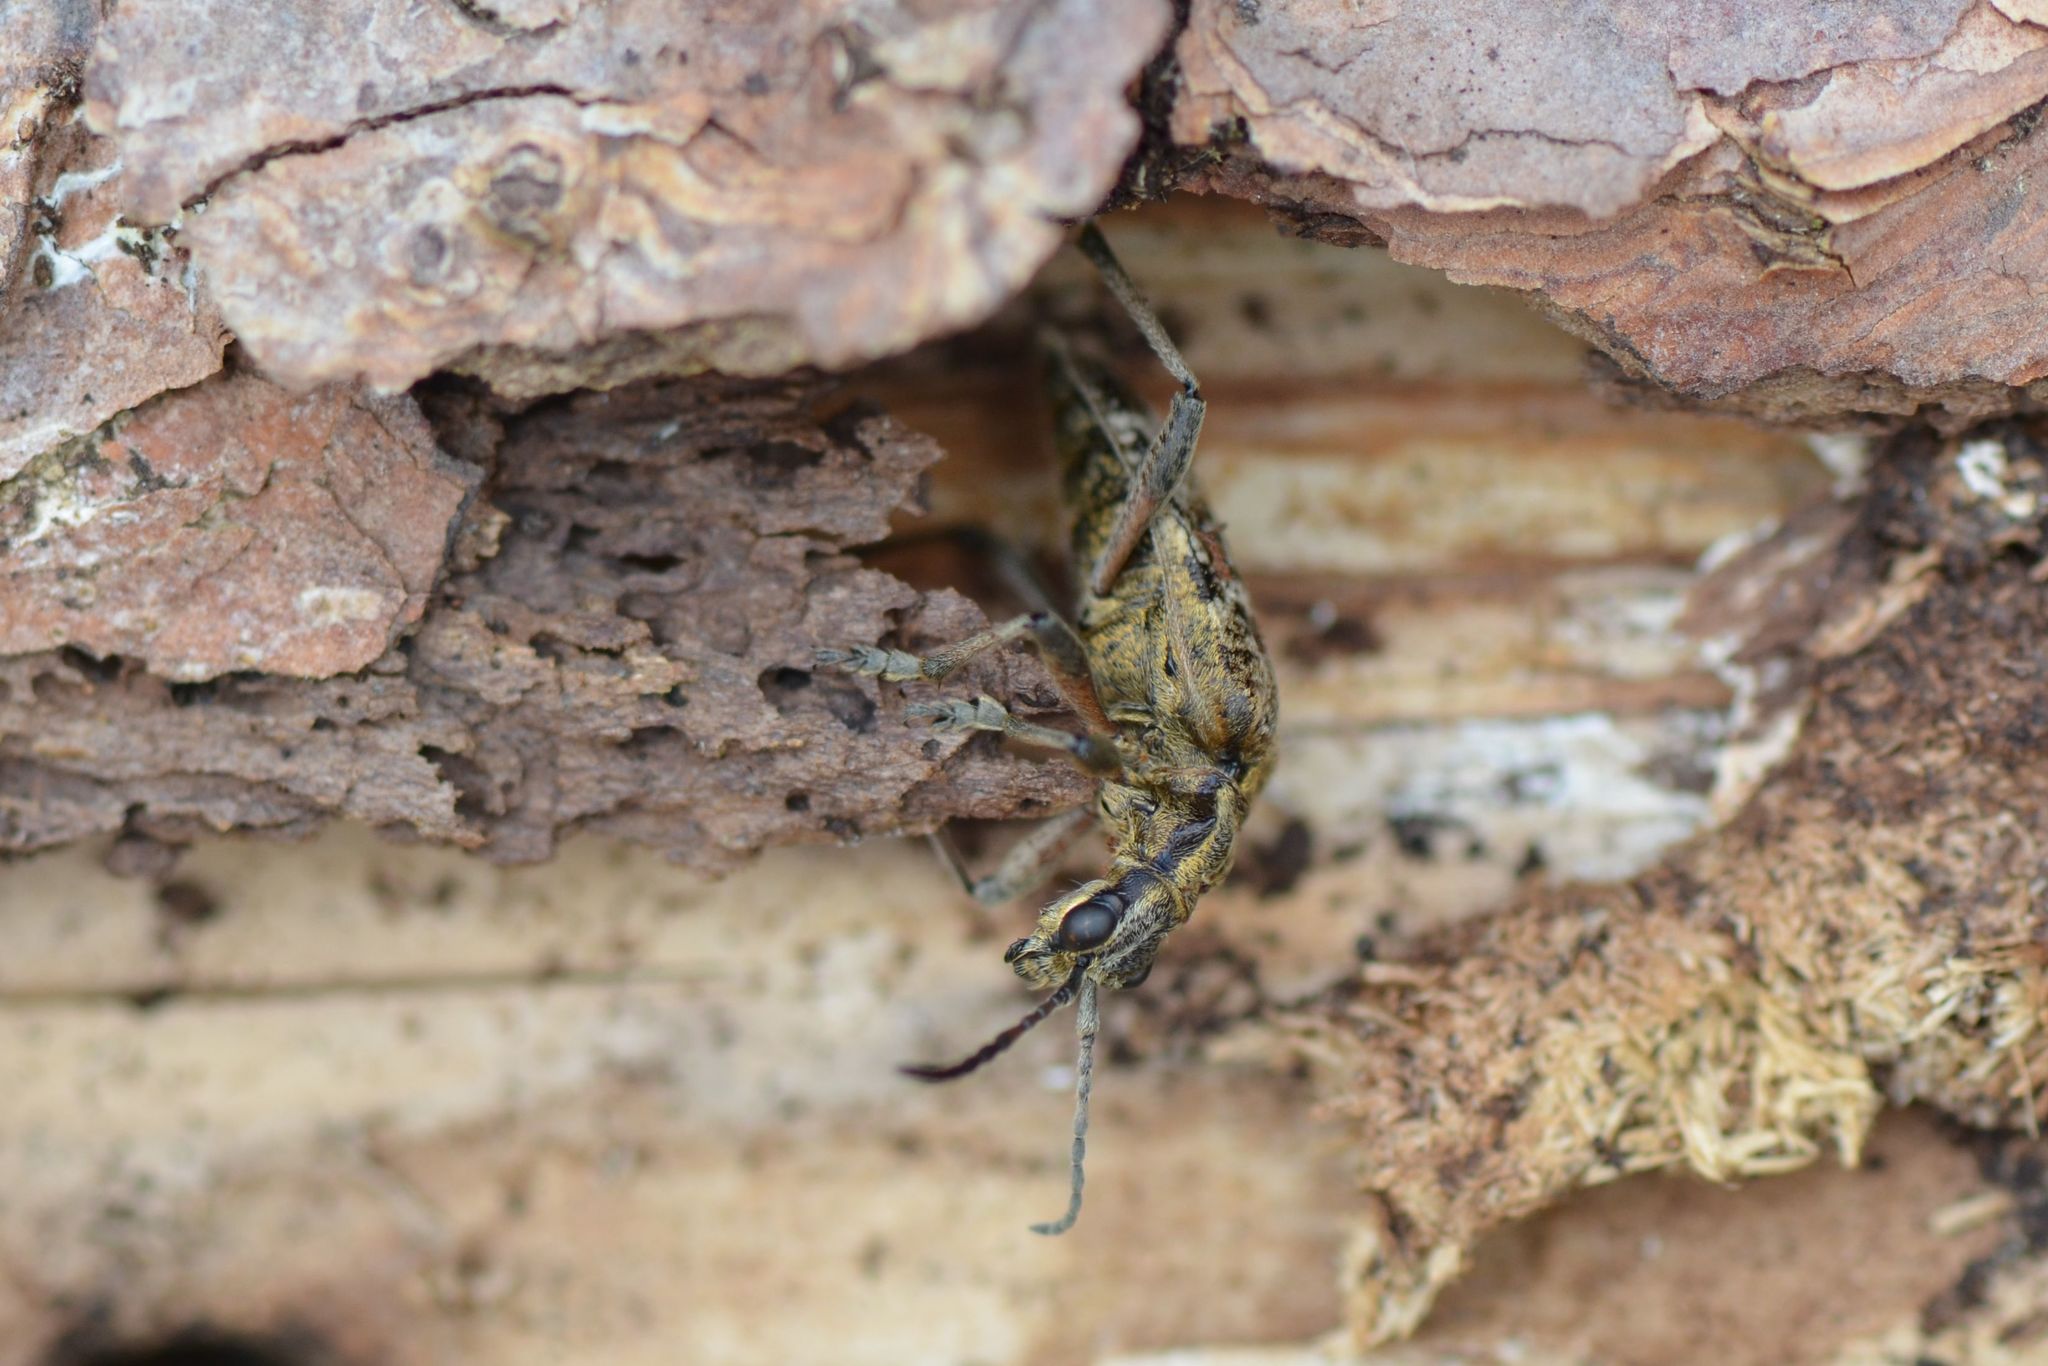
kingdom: Animalia
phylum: Arthropoda
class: Insecta
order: Coleoptera
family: Cerambycidae
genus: Rhagium
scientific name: Rhagium inquisitor
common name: Ribbed pine borer
